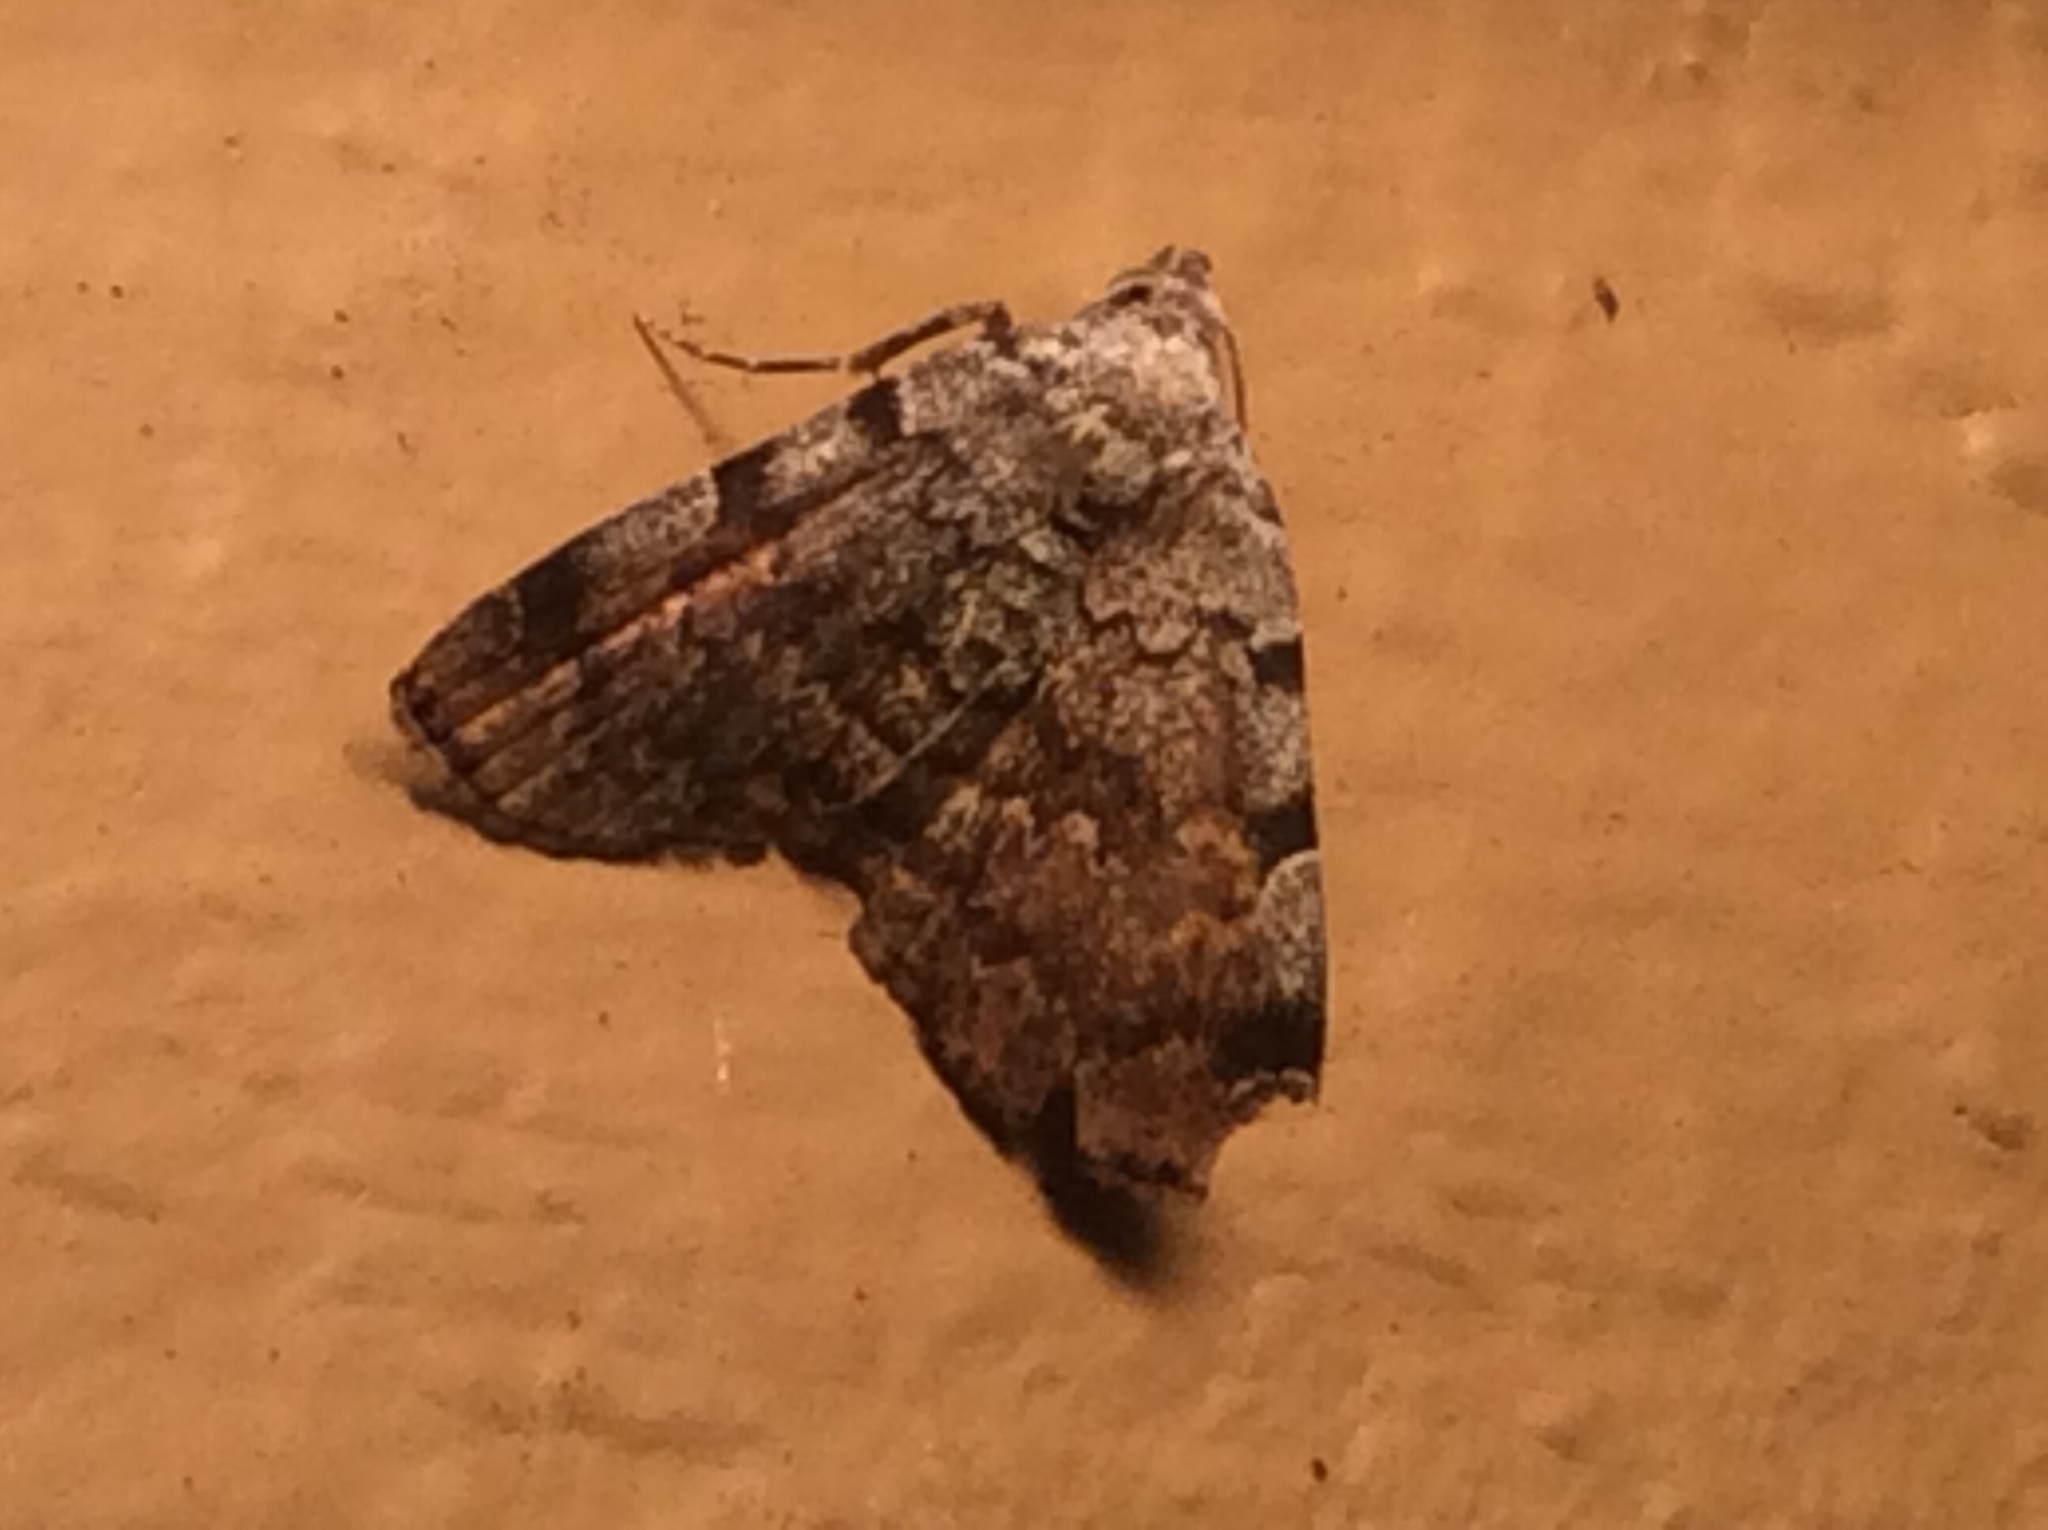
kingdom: Animalia
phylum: Arthropoda
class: Insecta
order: Lepidoptera
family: Erebidae
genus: Idia
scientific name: Idia americalis
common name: American idia moth
